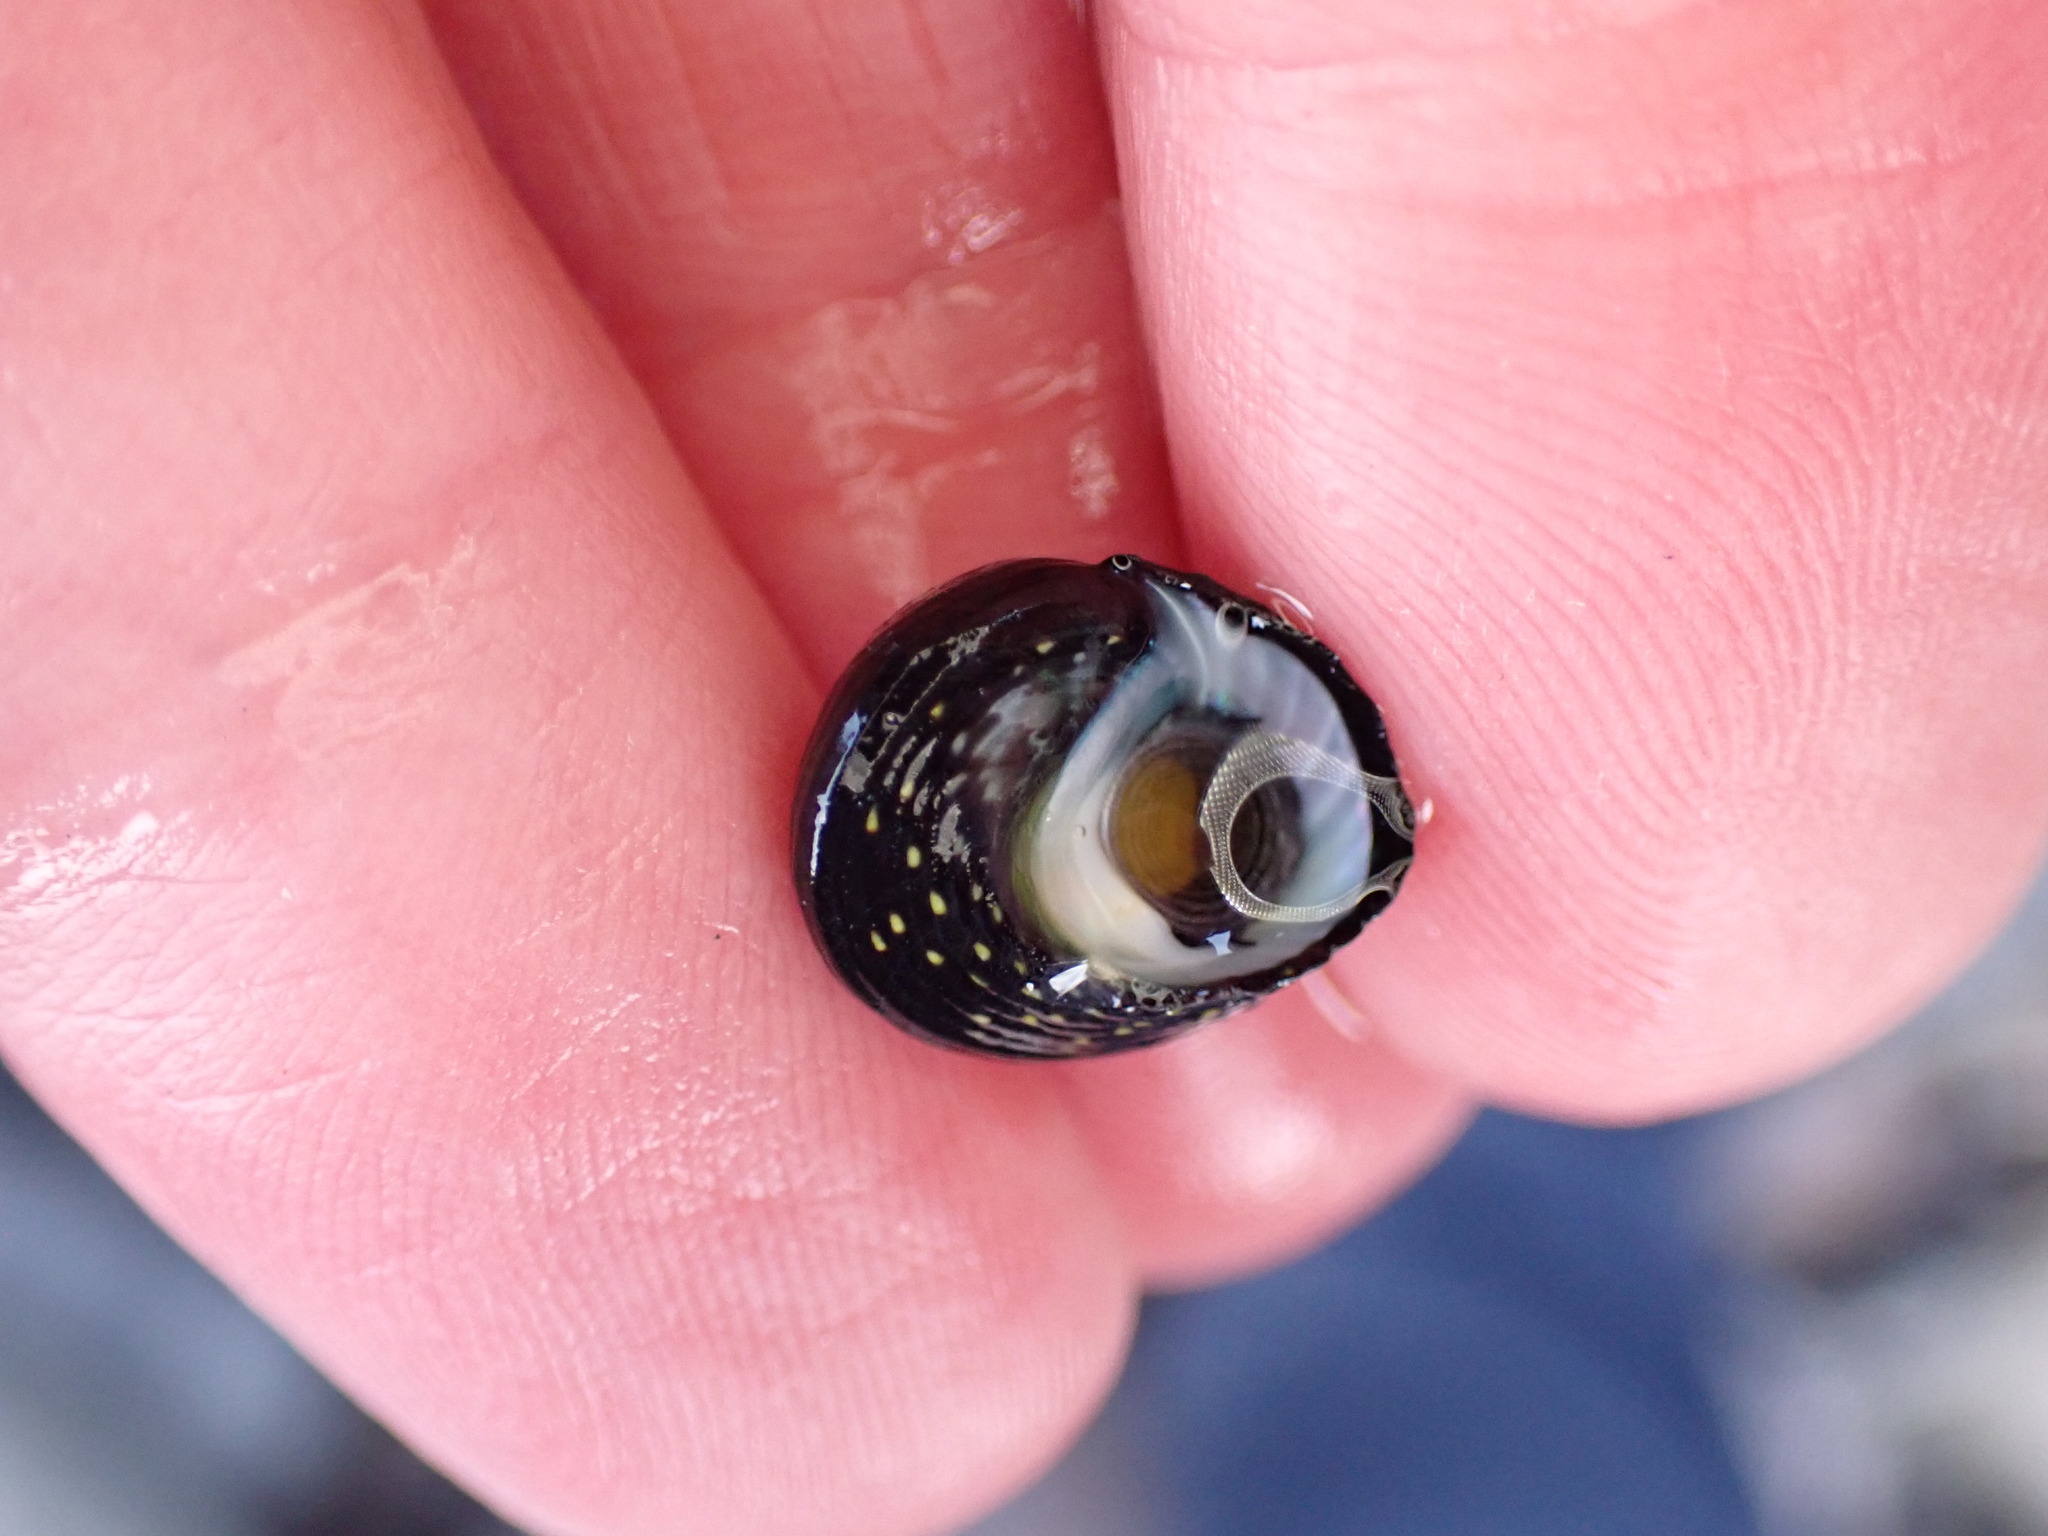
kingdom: Animalia
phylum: Mollusca
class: Gastropoda
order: Trochida
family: Trochidae
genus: Diloma
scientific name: Diloma aridum
